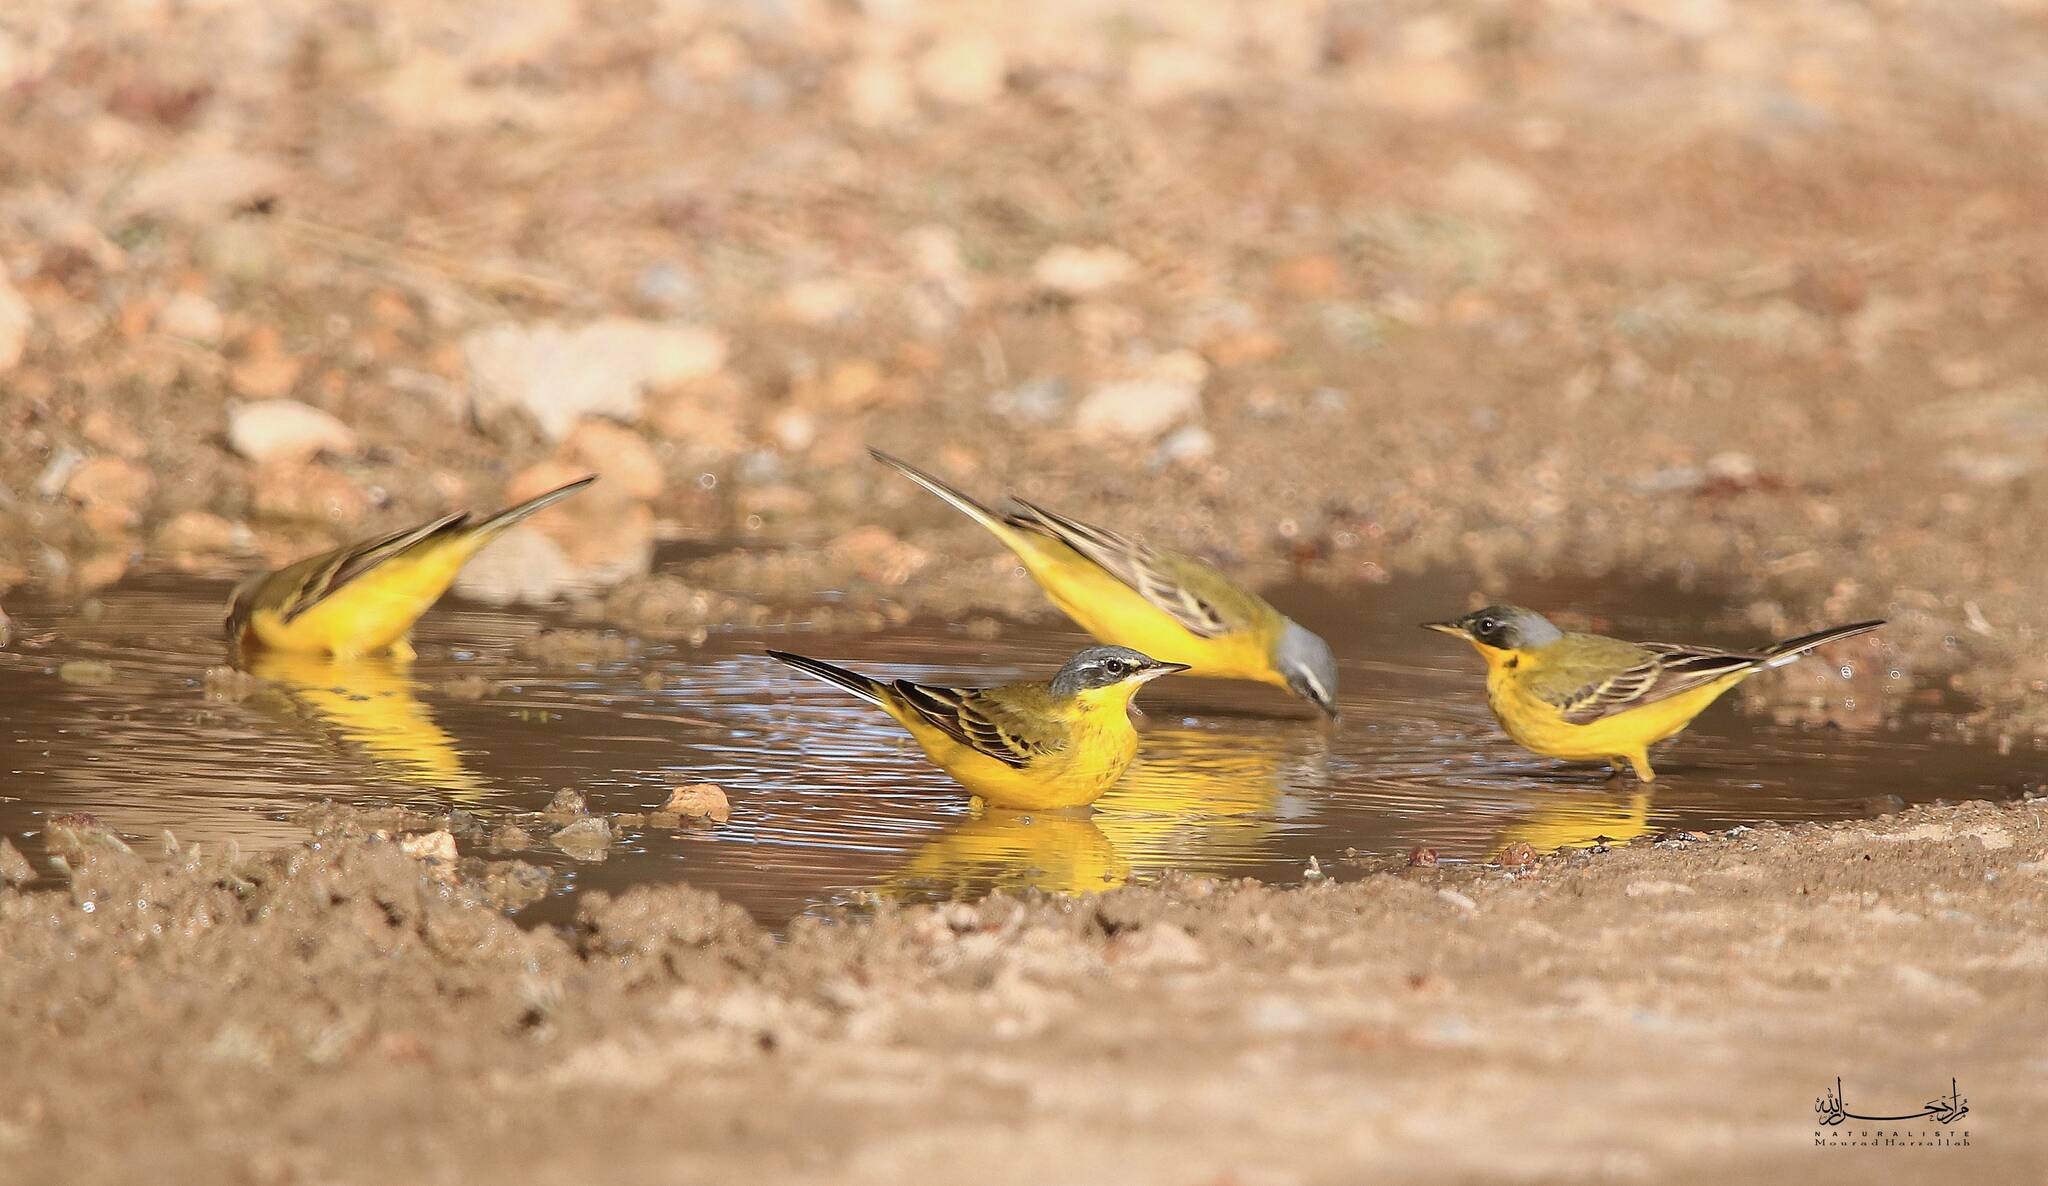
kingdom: Animalia
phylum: Chordata
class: Aves
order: Passeriformes
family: Motacillidae
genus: Motacilla
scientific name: Motacilla flava
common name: Western yellow wagtail
